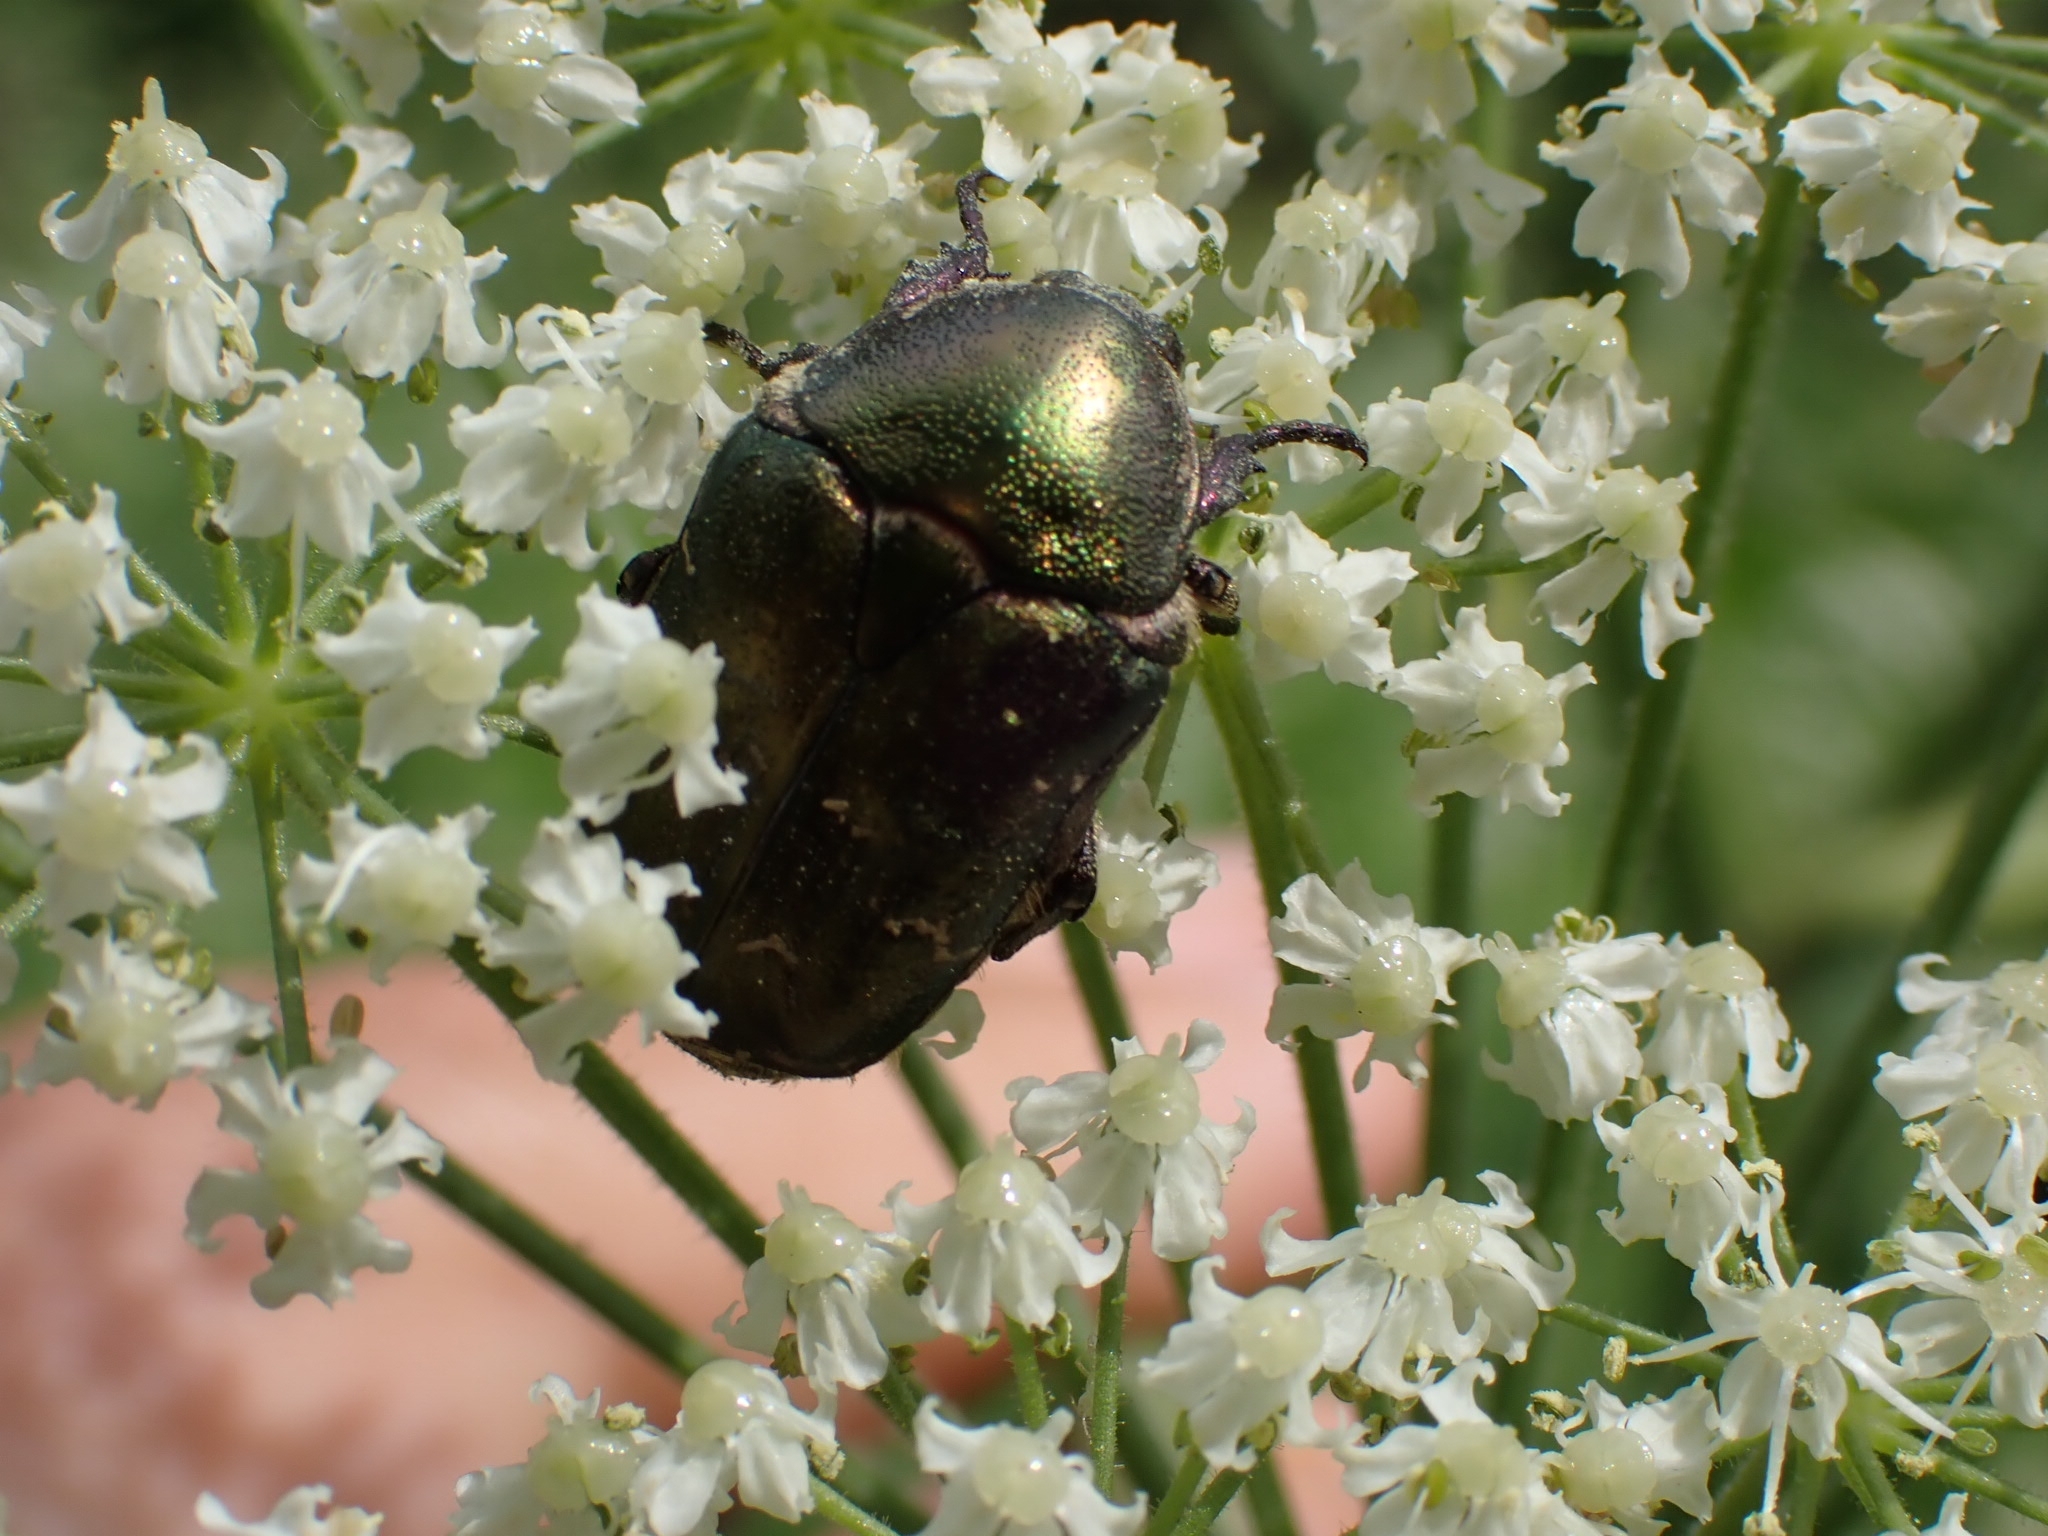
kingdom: Animalia
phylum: Arthropoda
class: Insecta
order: Coleoptera
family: Scarabaeidae
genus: Protaetia
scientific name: Protaetia cuprea
